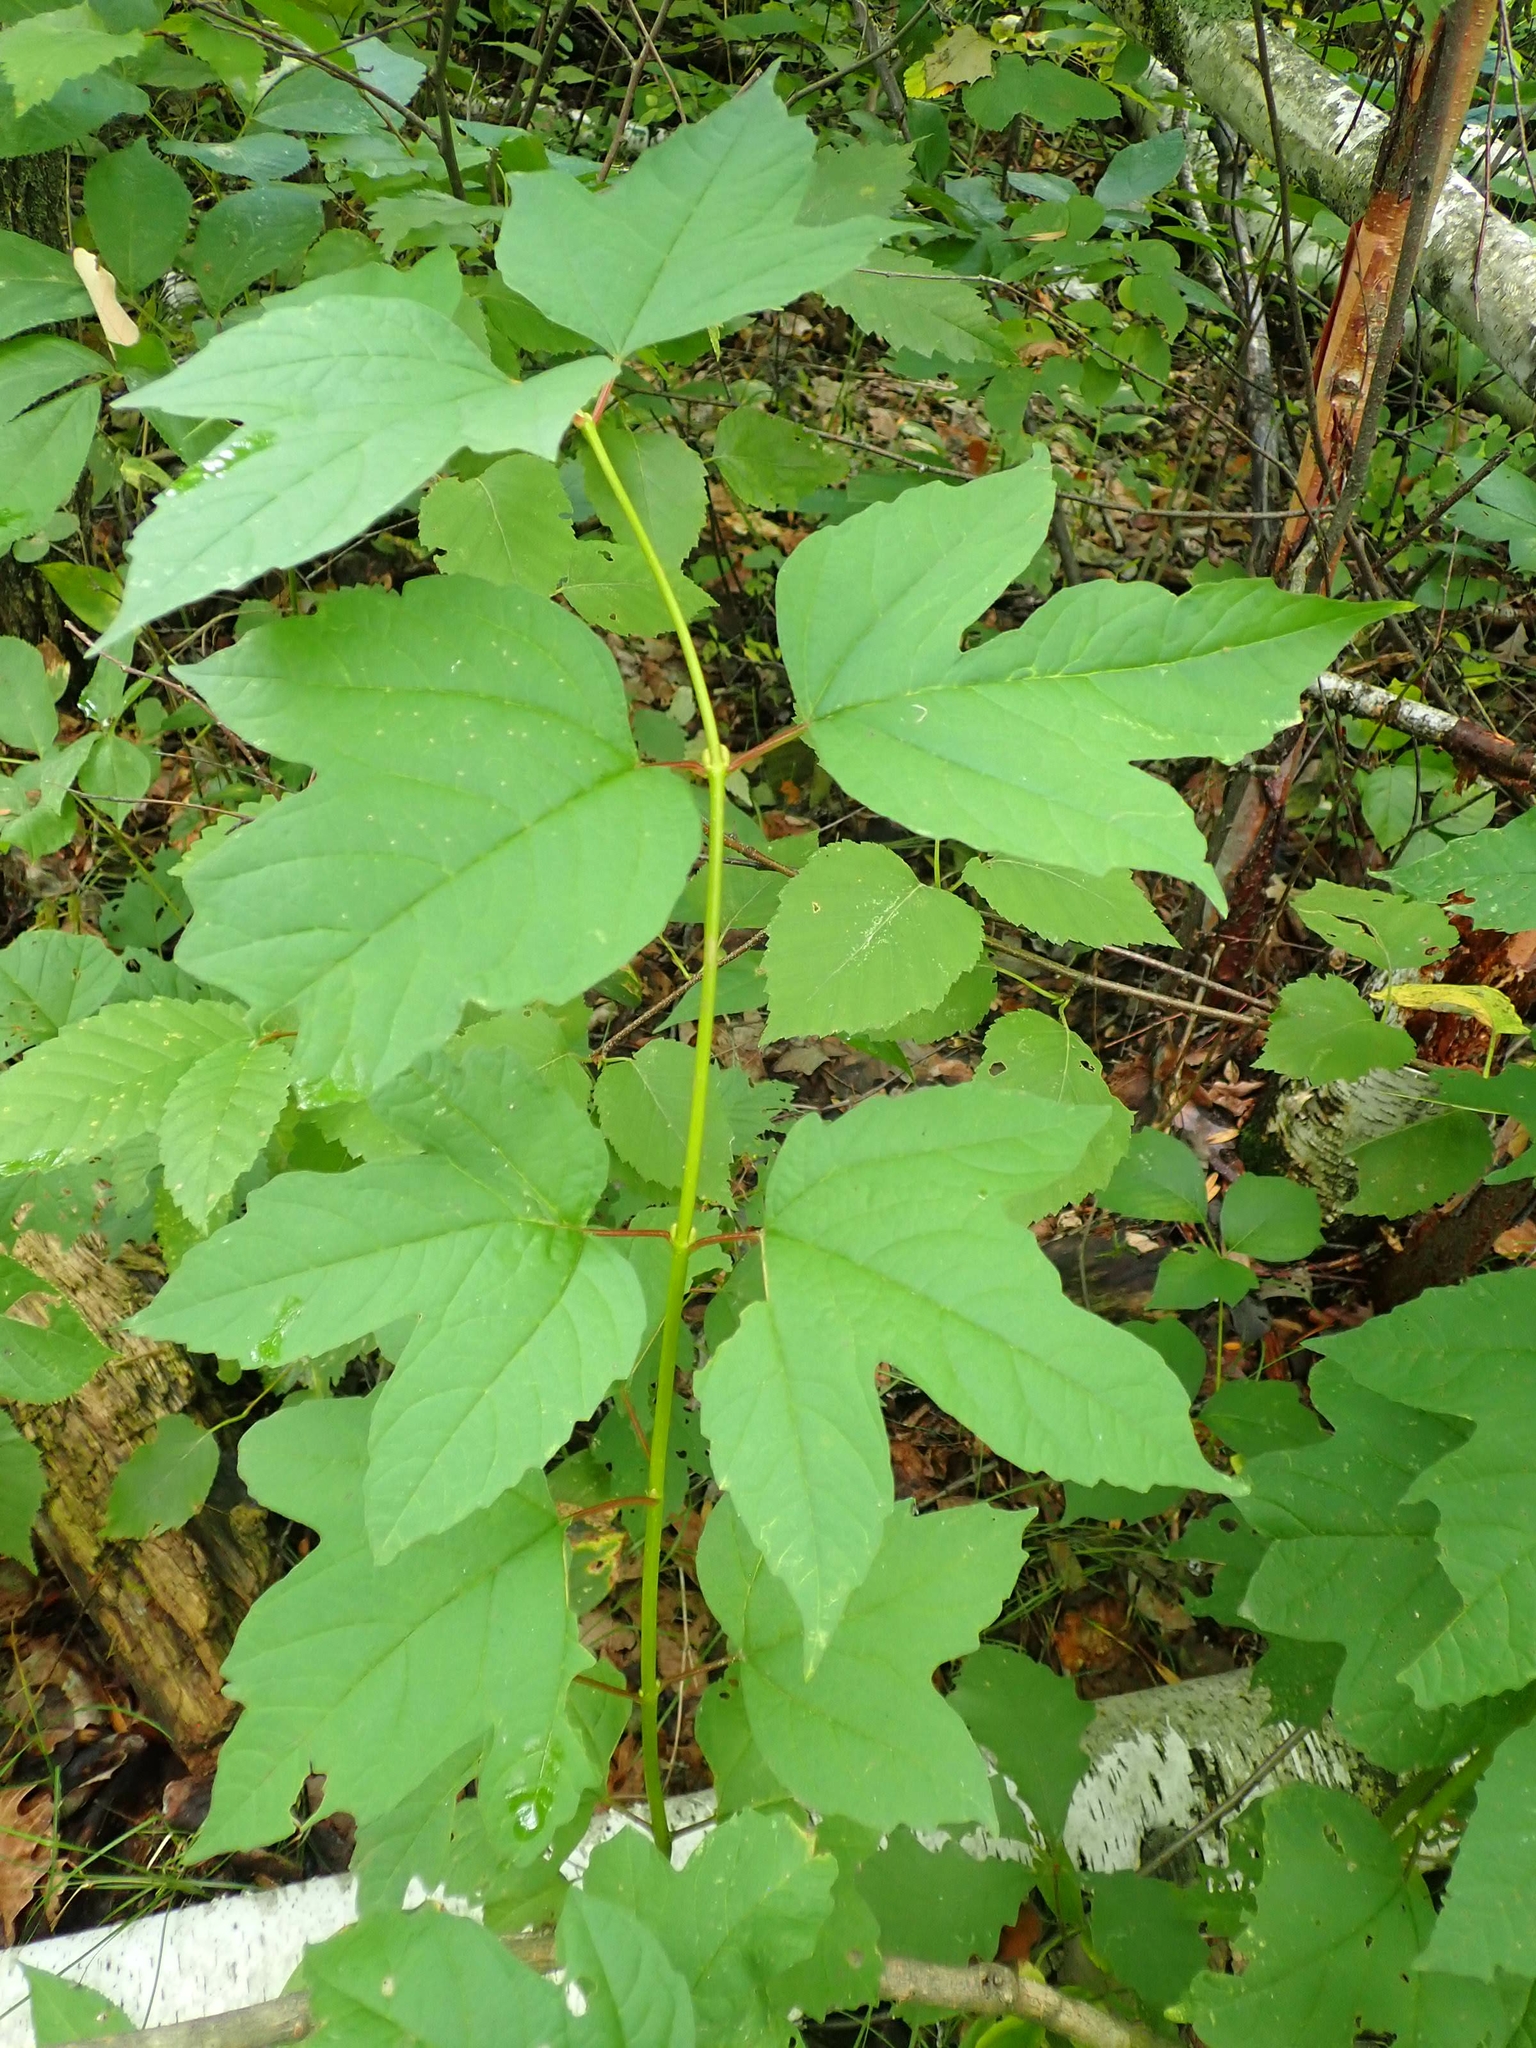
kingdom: Plantae
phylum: Tracheophyta
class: Magnoliopsida
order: Dipsacales
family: Viburnaceae
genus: Viburnum
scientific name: Viburnum trilobum
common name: American cranberrybush
